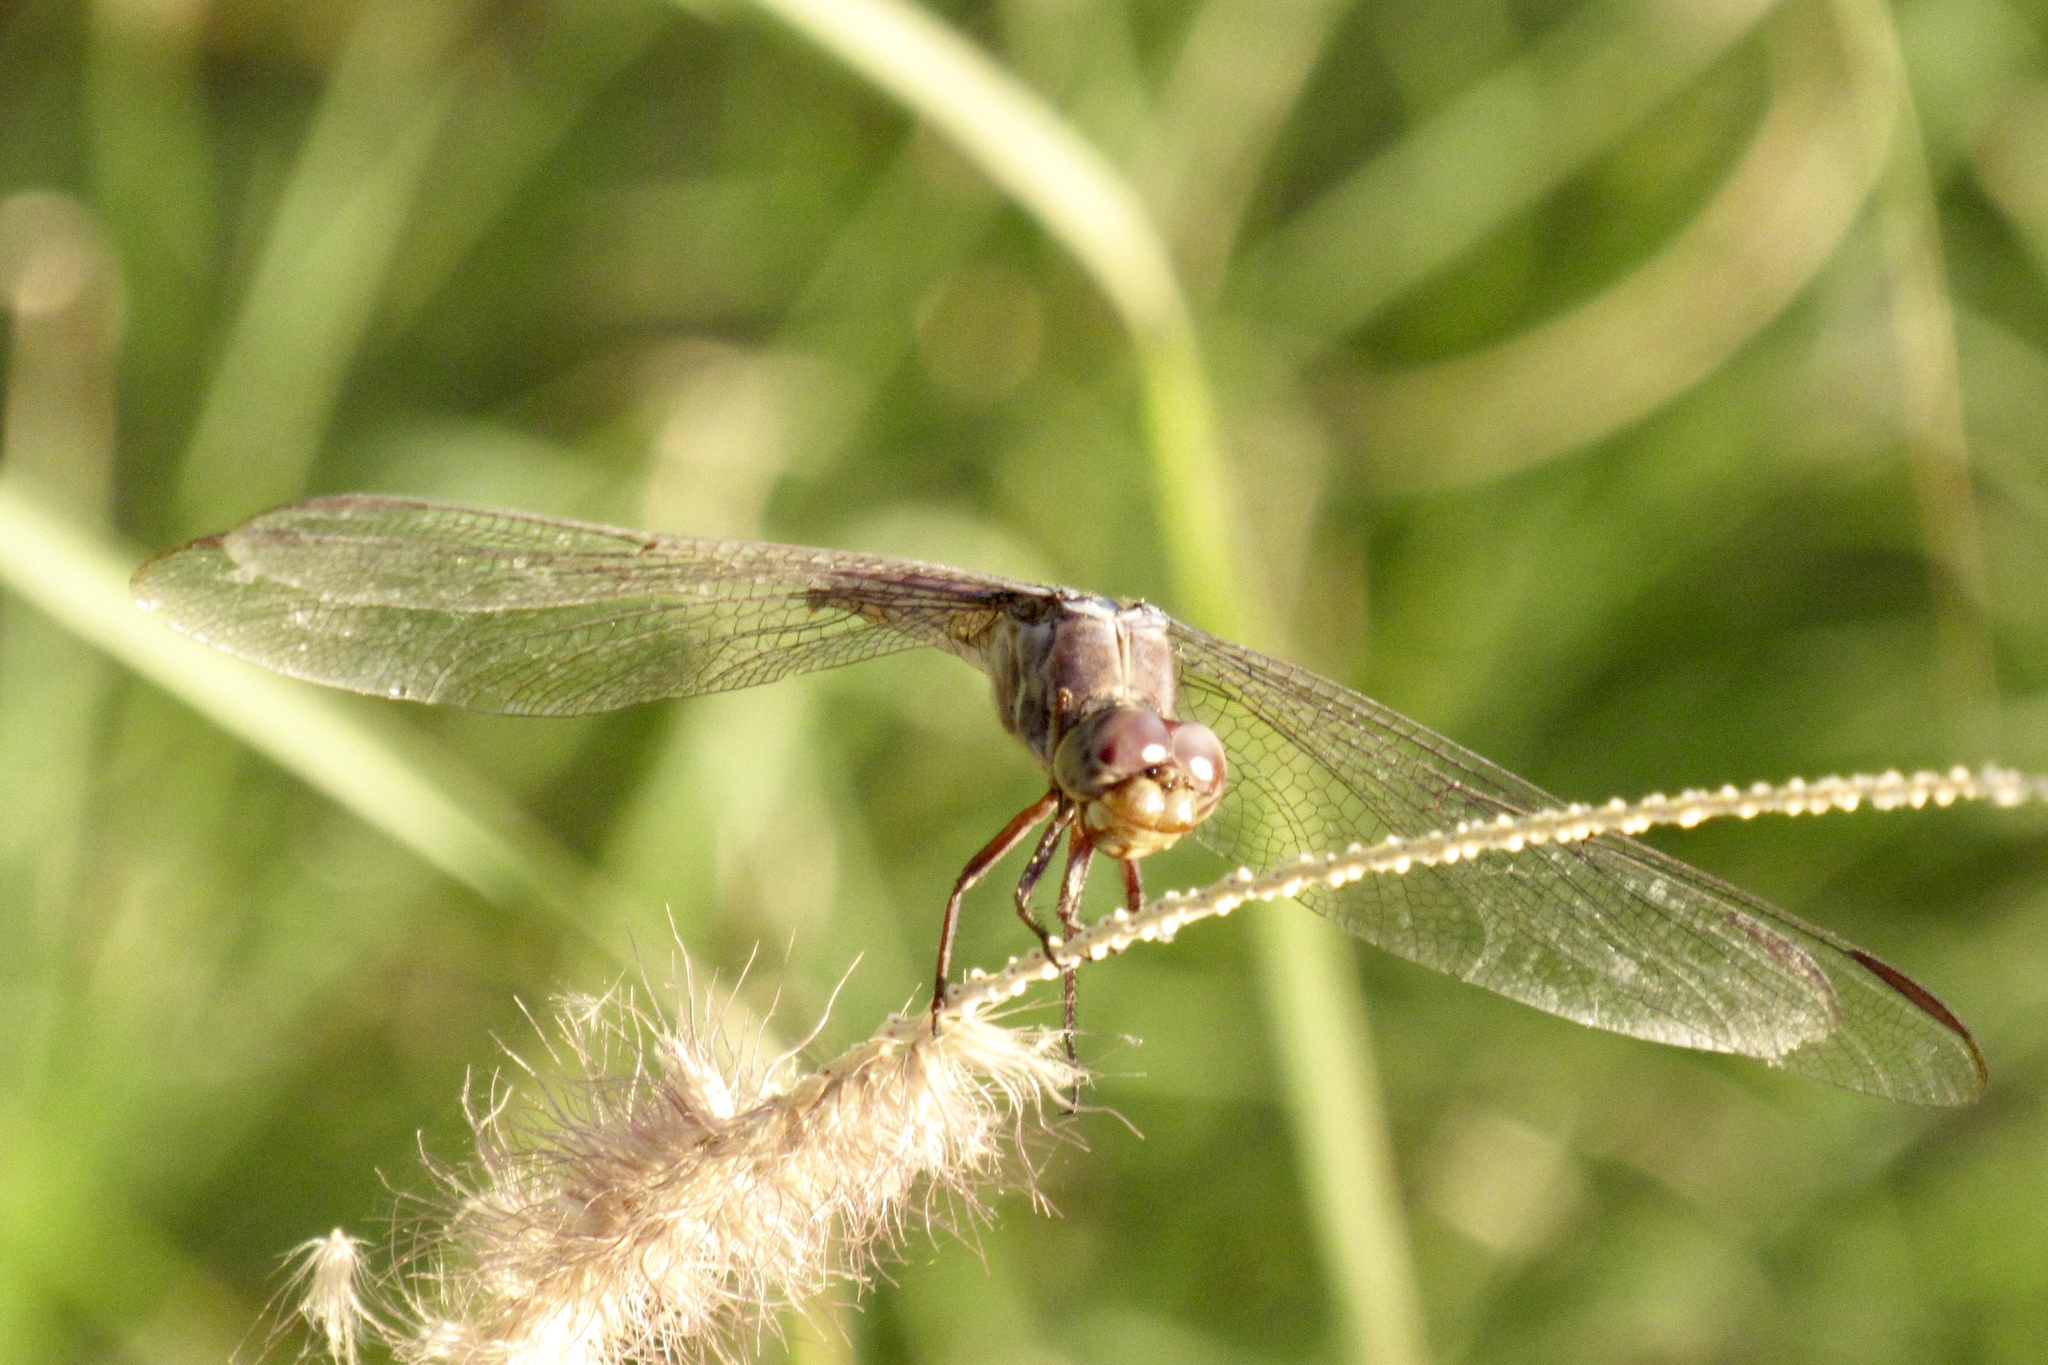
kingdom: Animalia
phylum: Arthropoda
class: Insecta
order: Odonata
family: Libellulidae
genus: Orthemis
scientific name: Orthemis ferruginea
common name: Roseate skimmer
